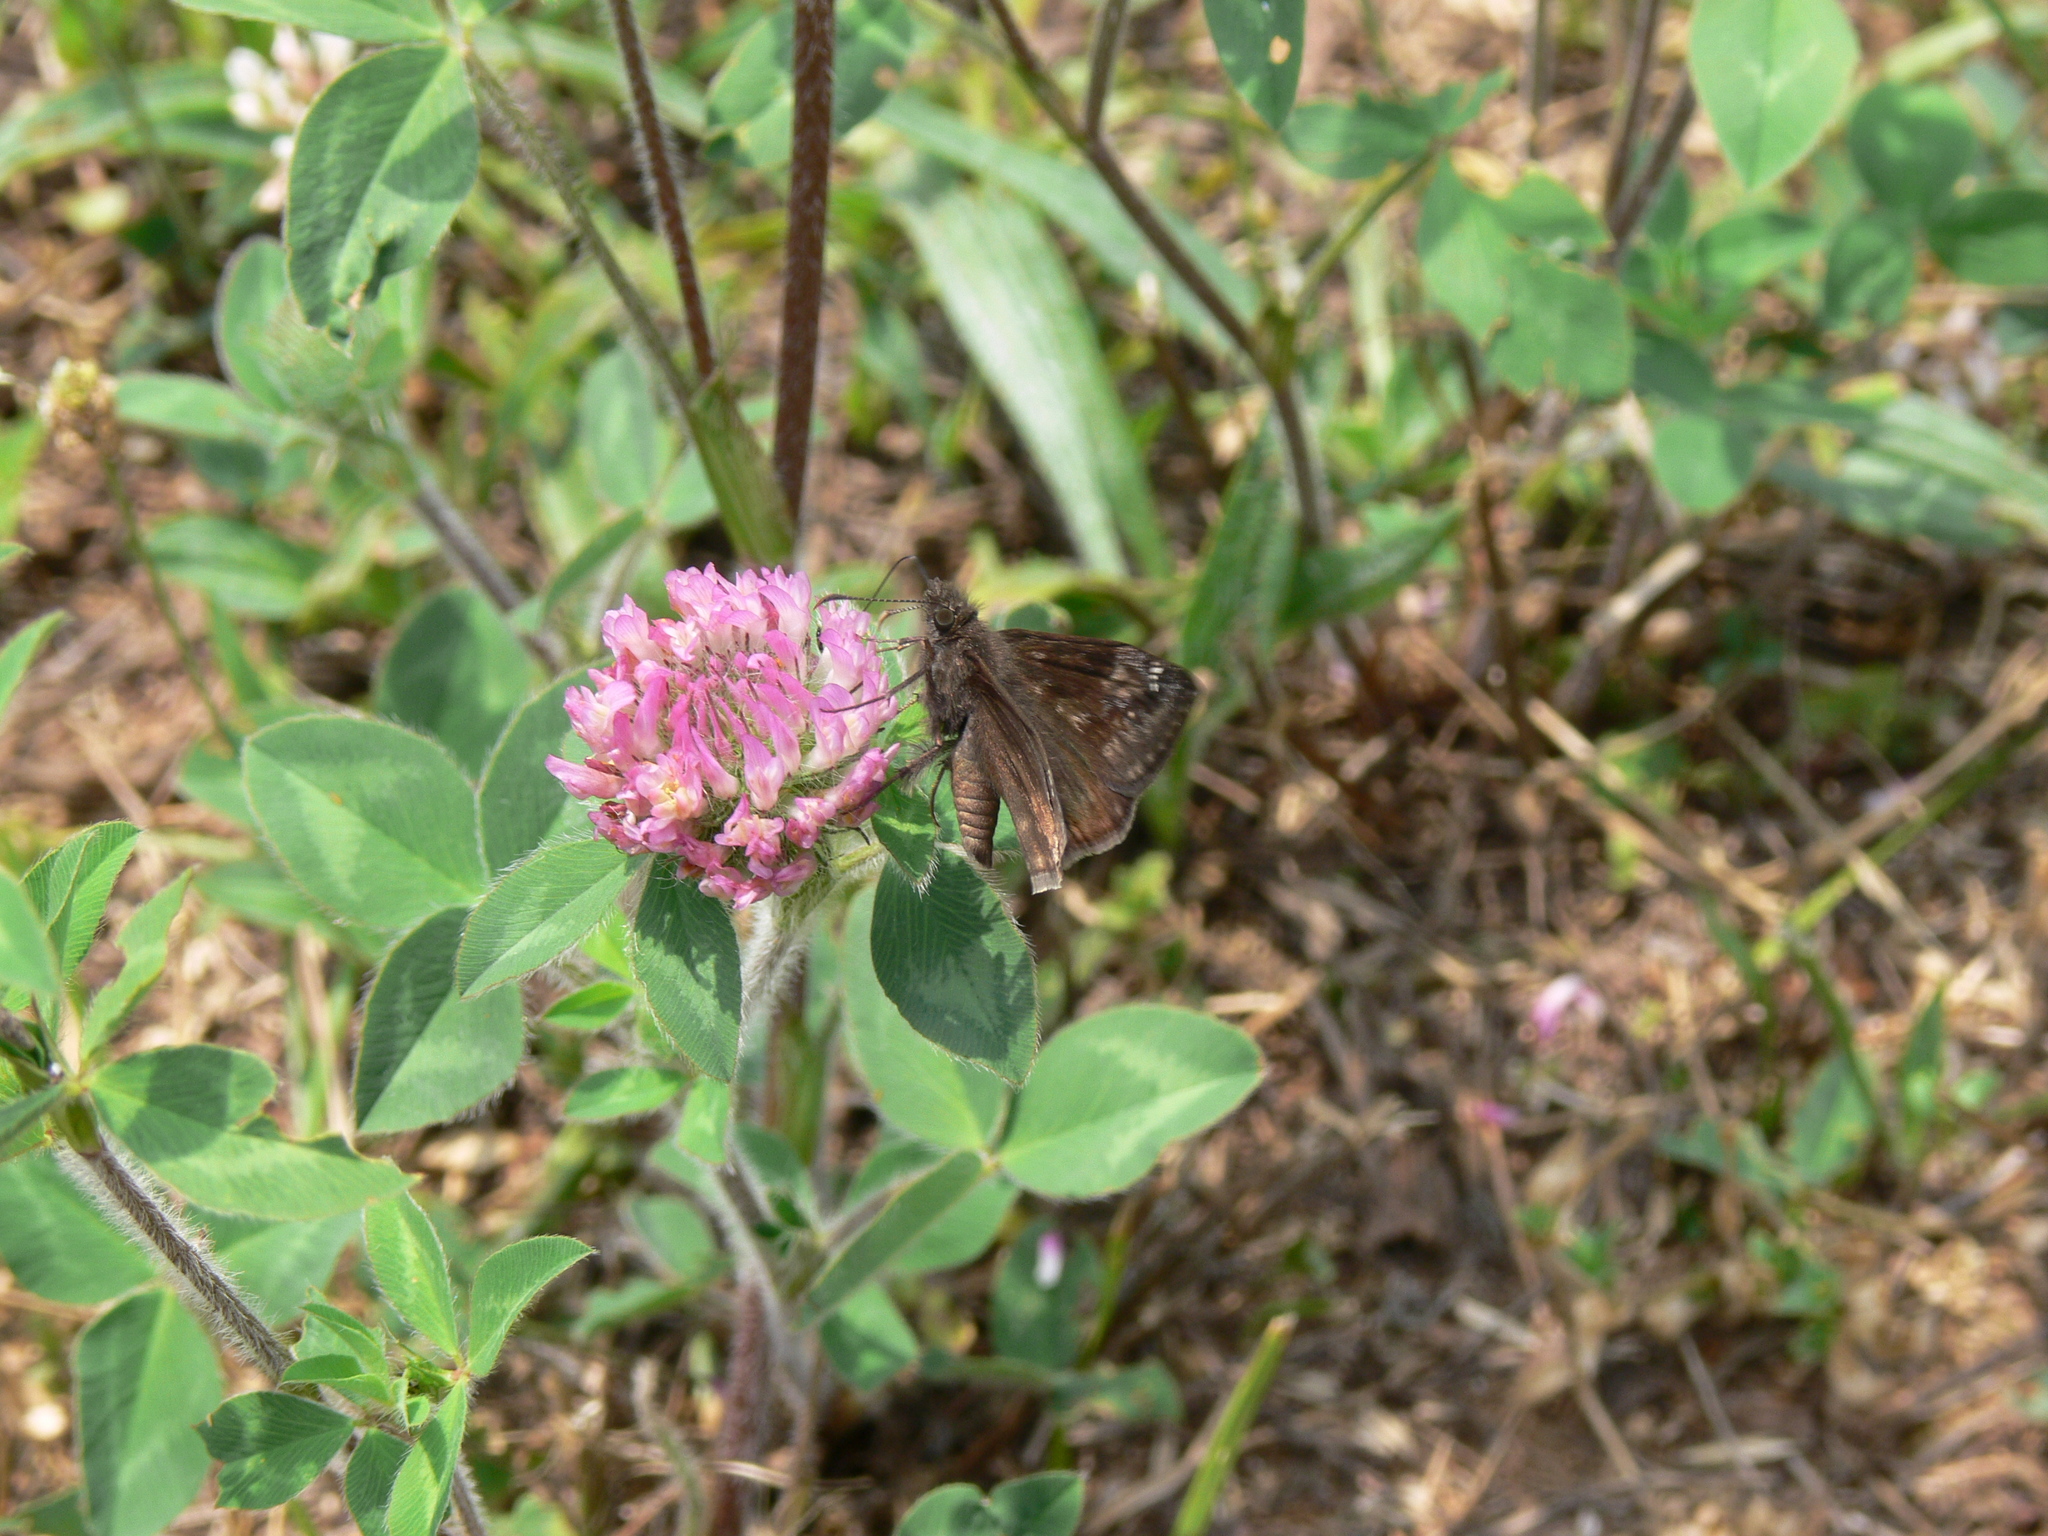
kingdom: Animalia
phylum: Arthropoda
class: Insecta
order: Lepidoptera
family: Hesperiidae
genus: Erynnis
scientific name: Erynnis baptisiae
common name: Wild indigo duskywing
